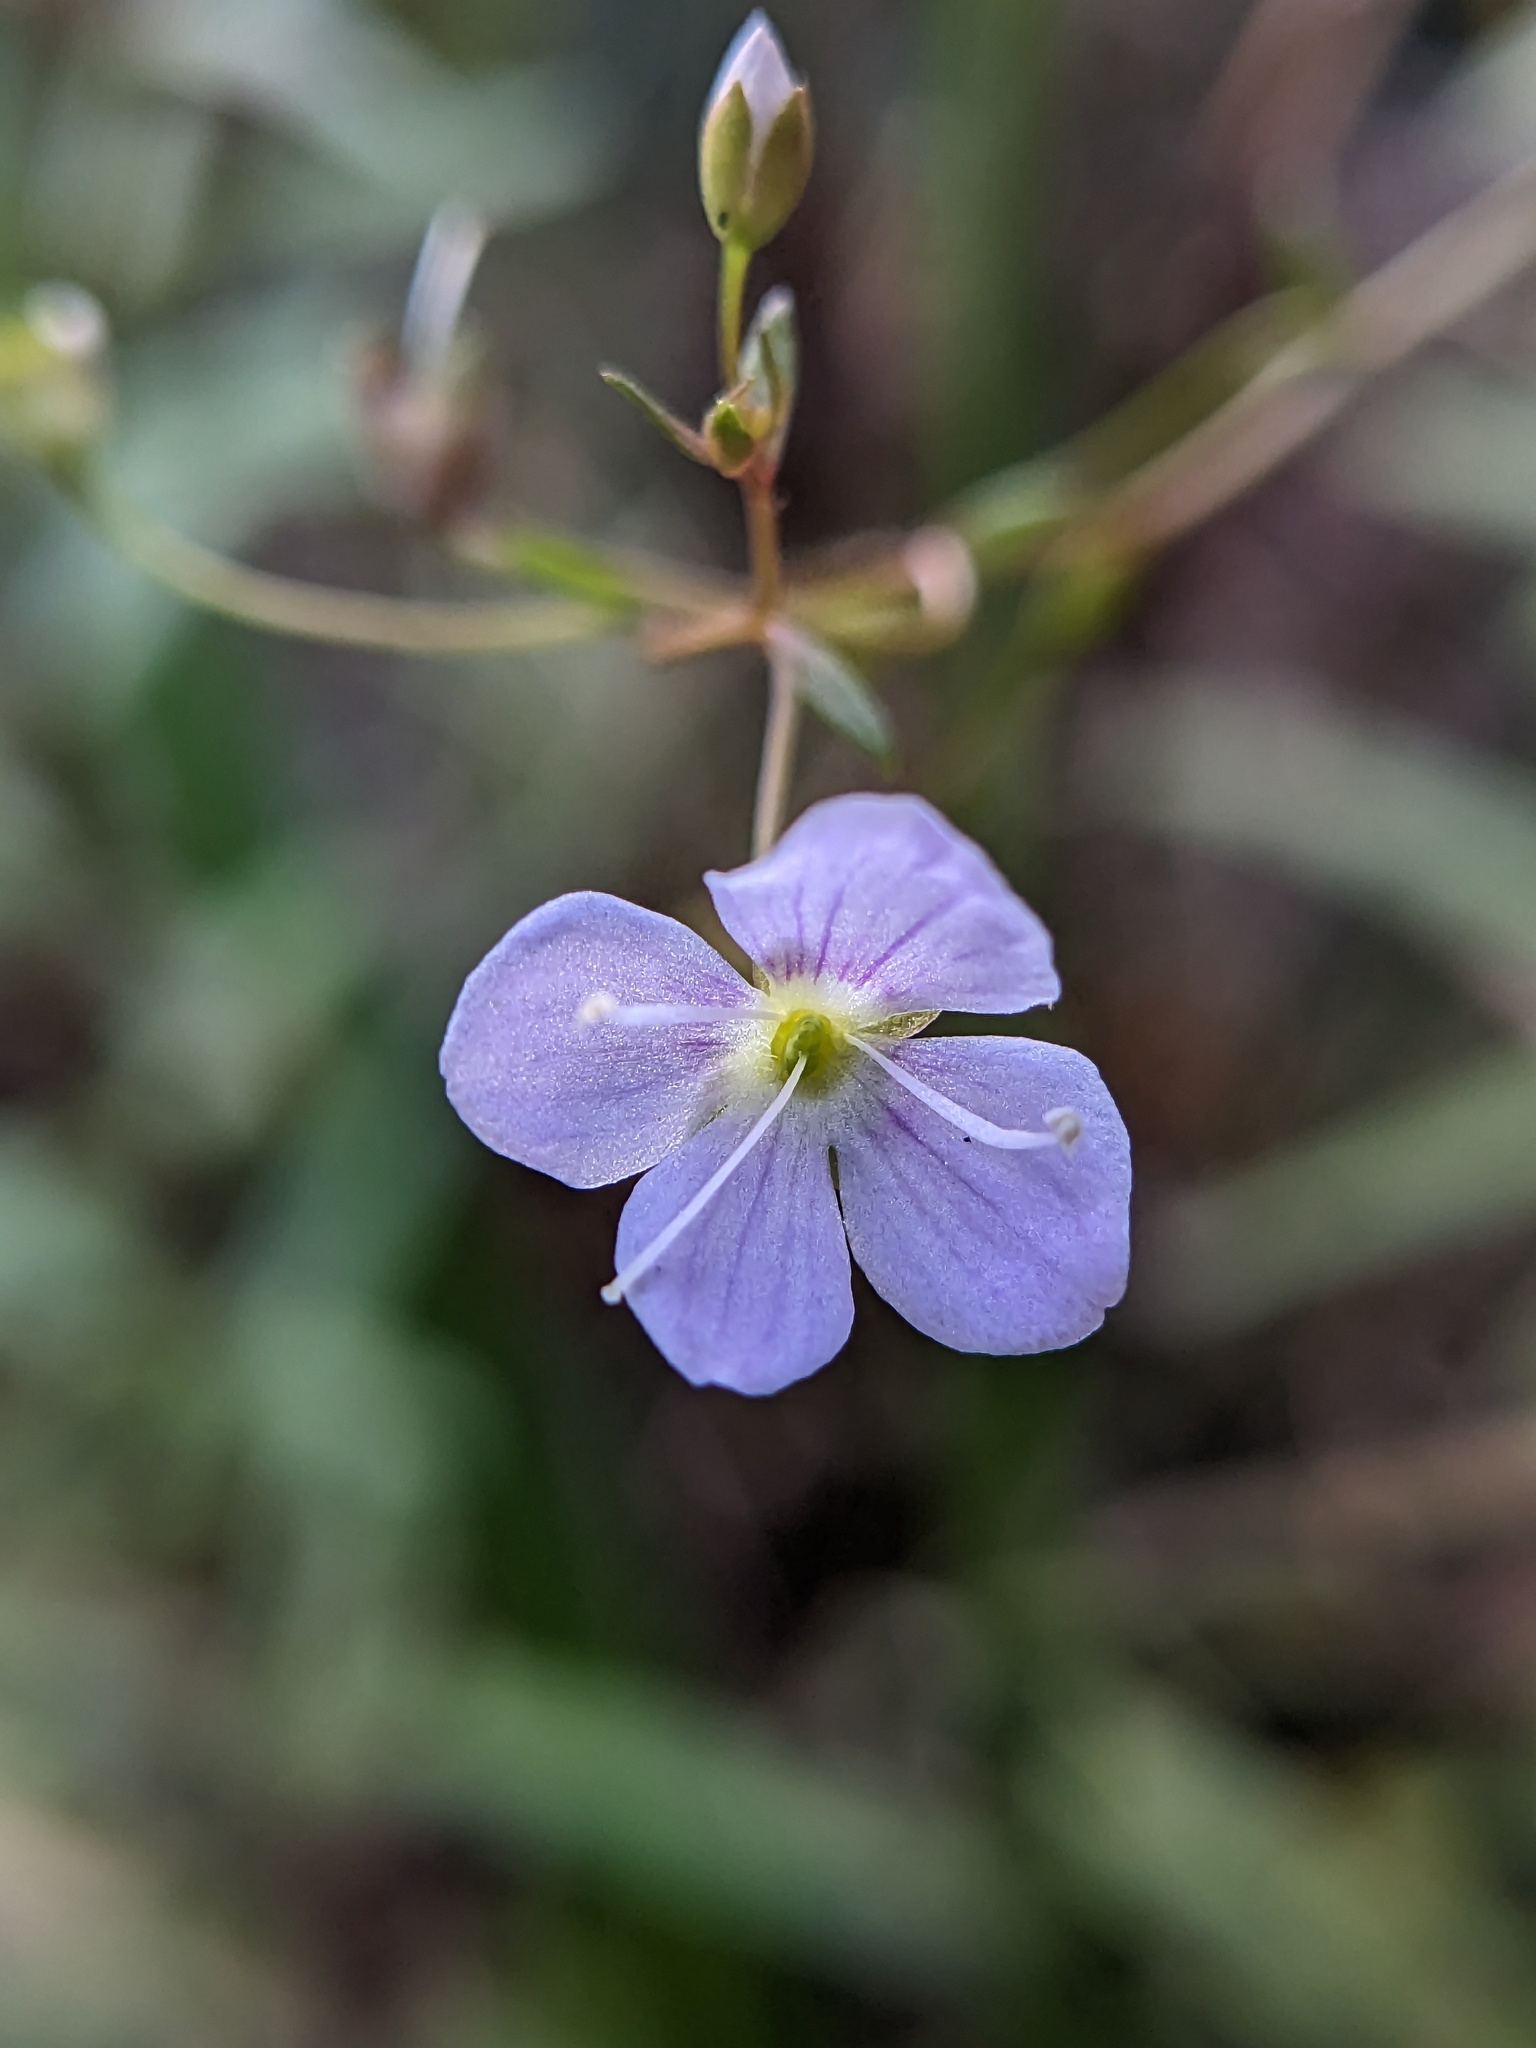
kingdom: Plantae
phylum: Tracheophyta
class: Magnoliopsida
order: Lamiales
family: Plantaginaceae
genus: Veronica
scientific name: Veronica scutellata
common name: Marsh speedwell
